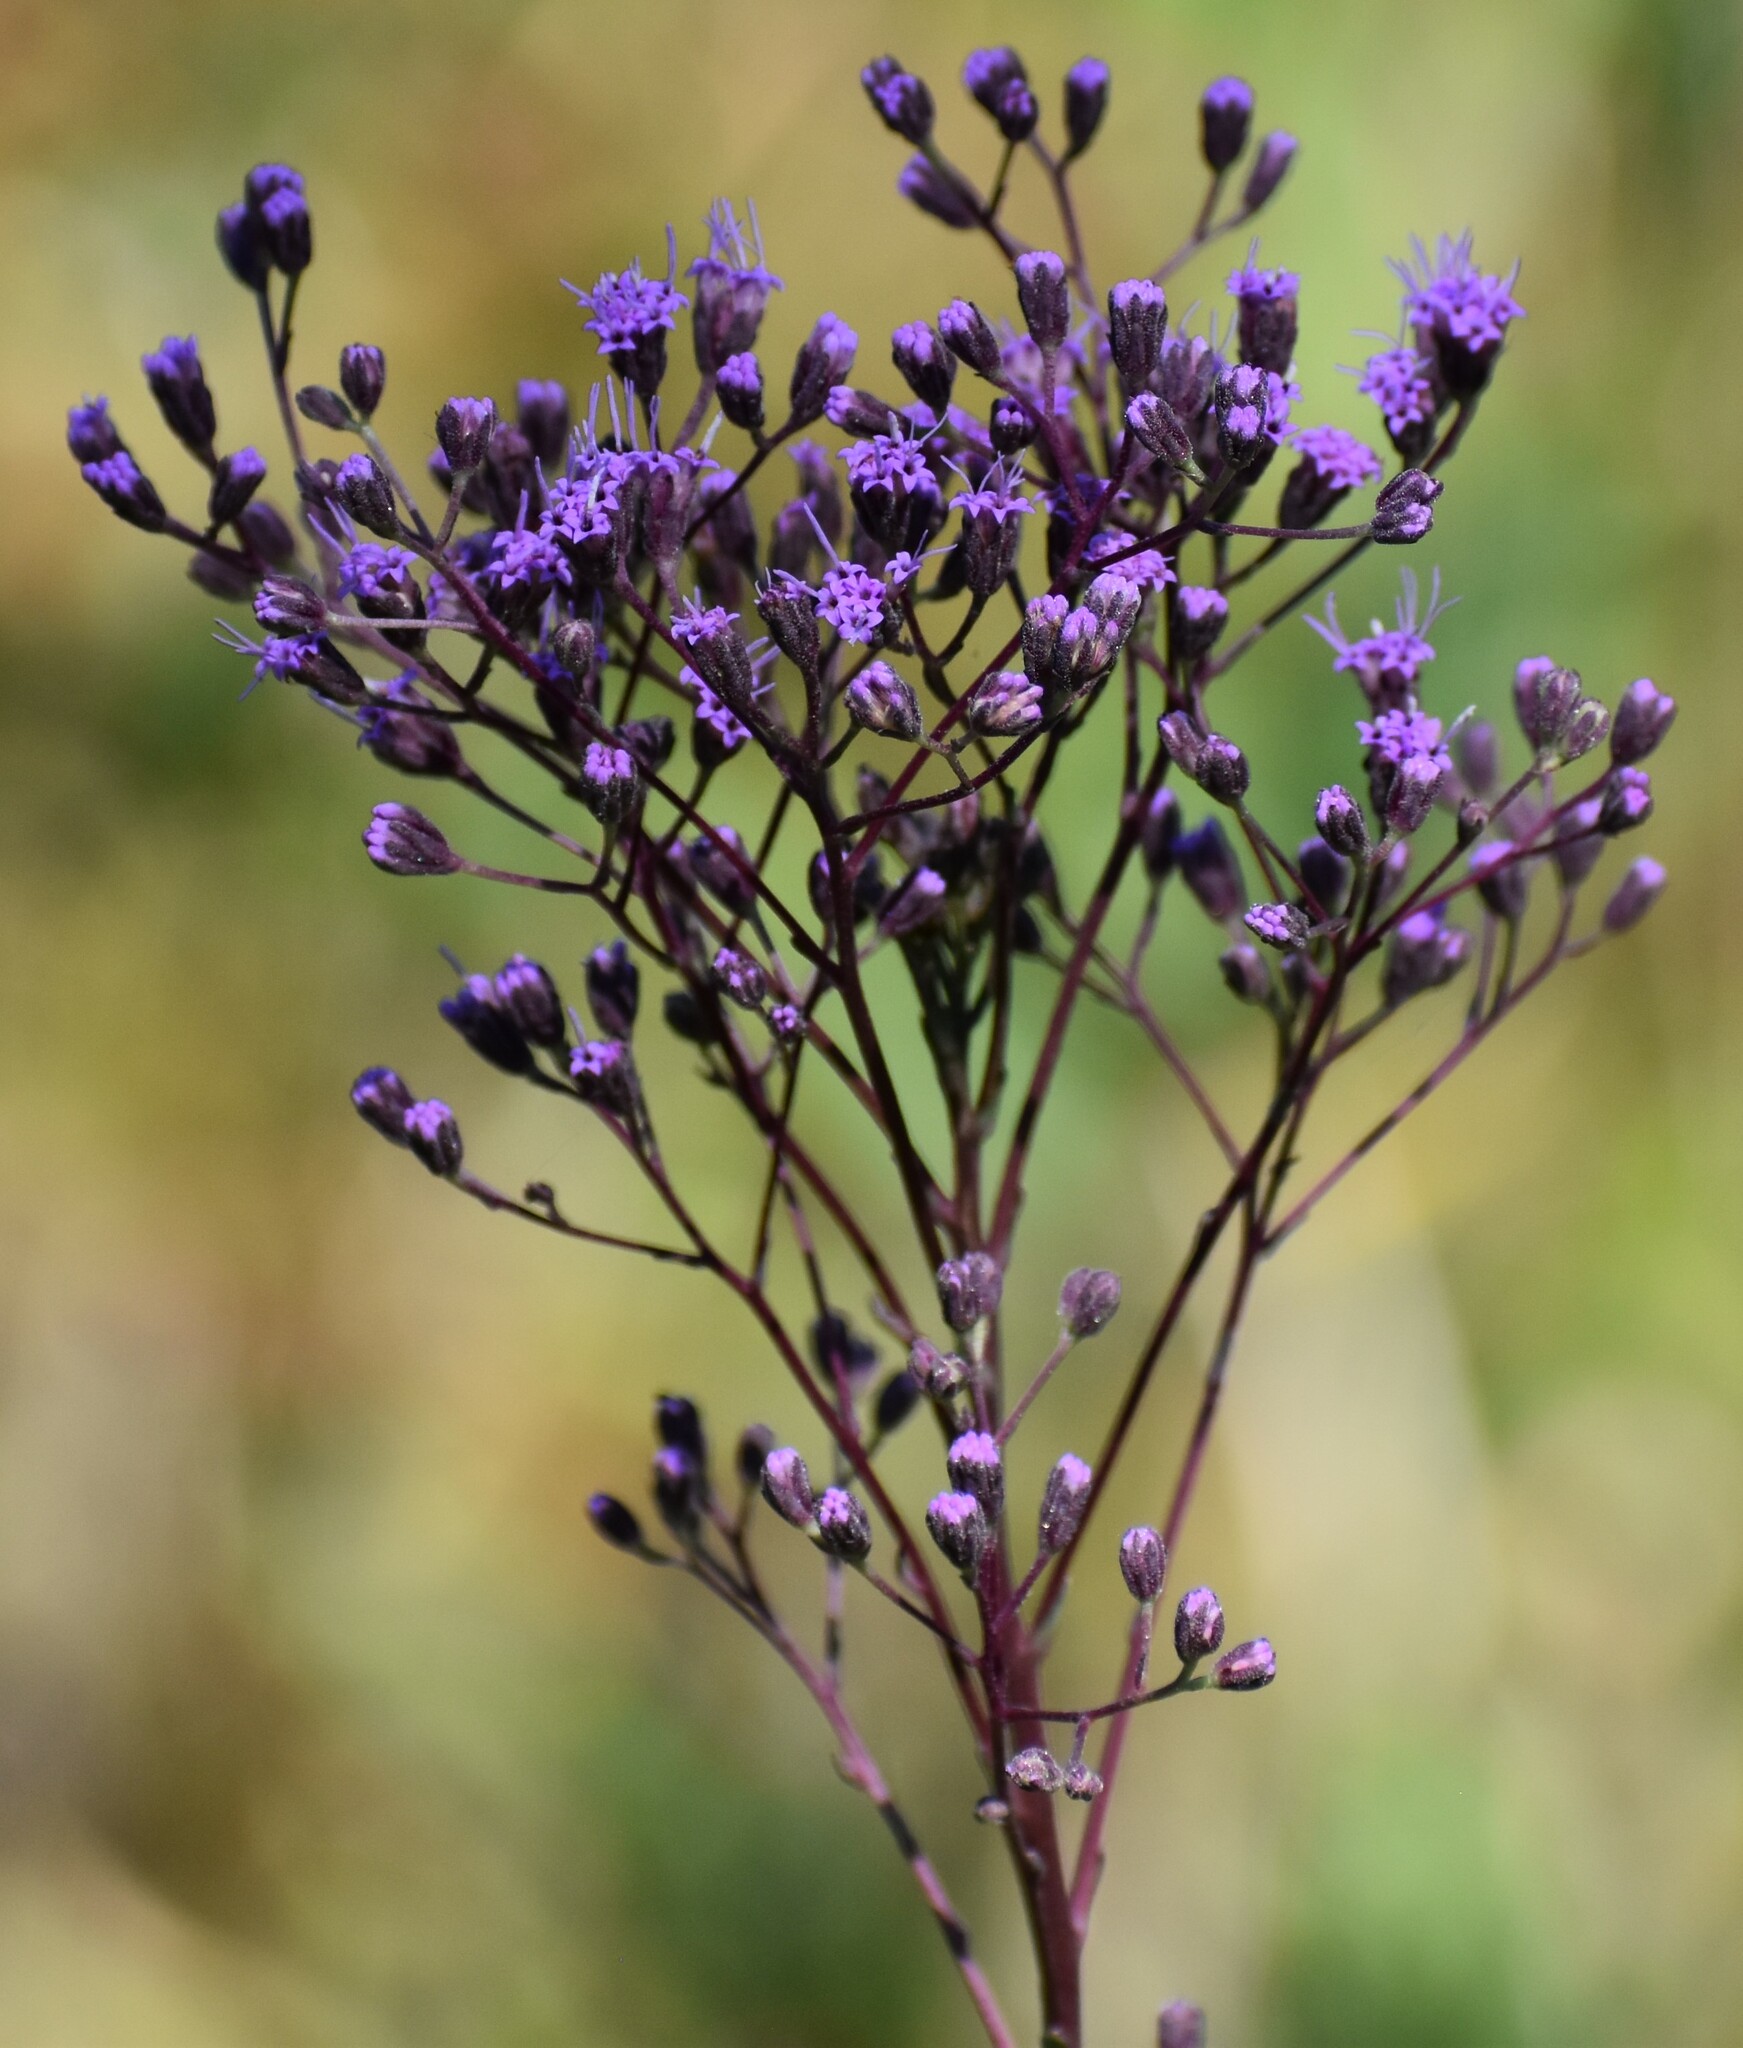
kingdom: Plantae
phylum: Tracheophyta
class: Magnoliopsida
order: Asterales
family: Asteraceae
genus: Carphephorus
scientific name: Carphephorus odoratissimus
